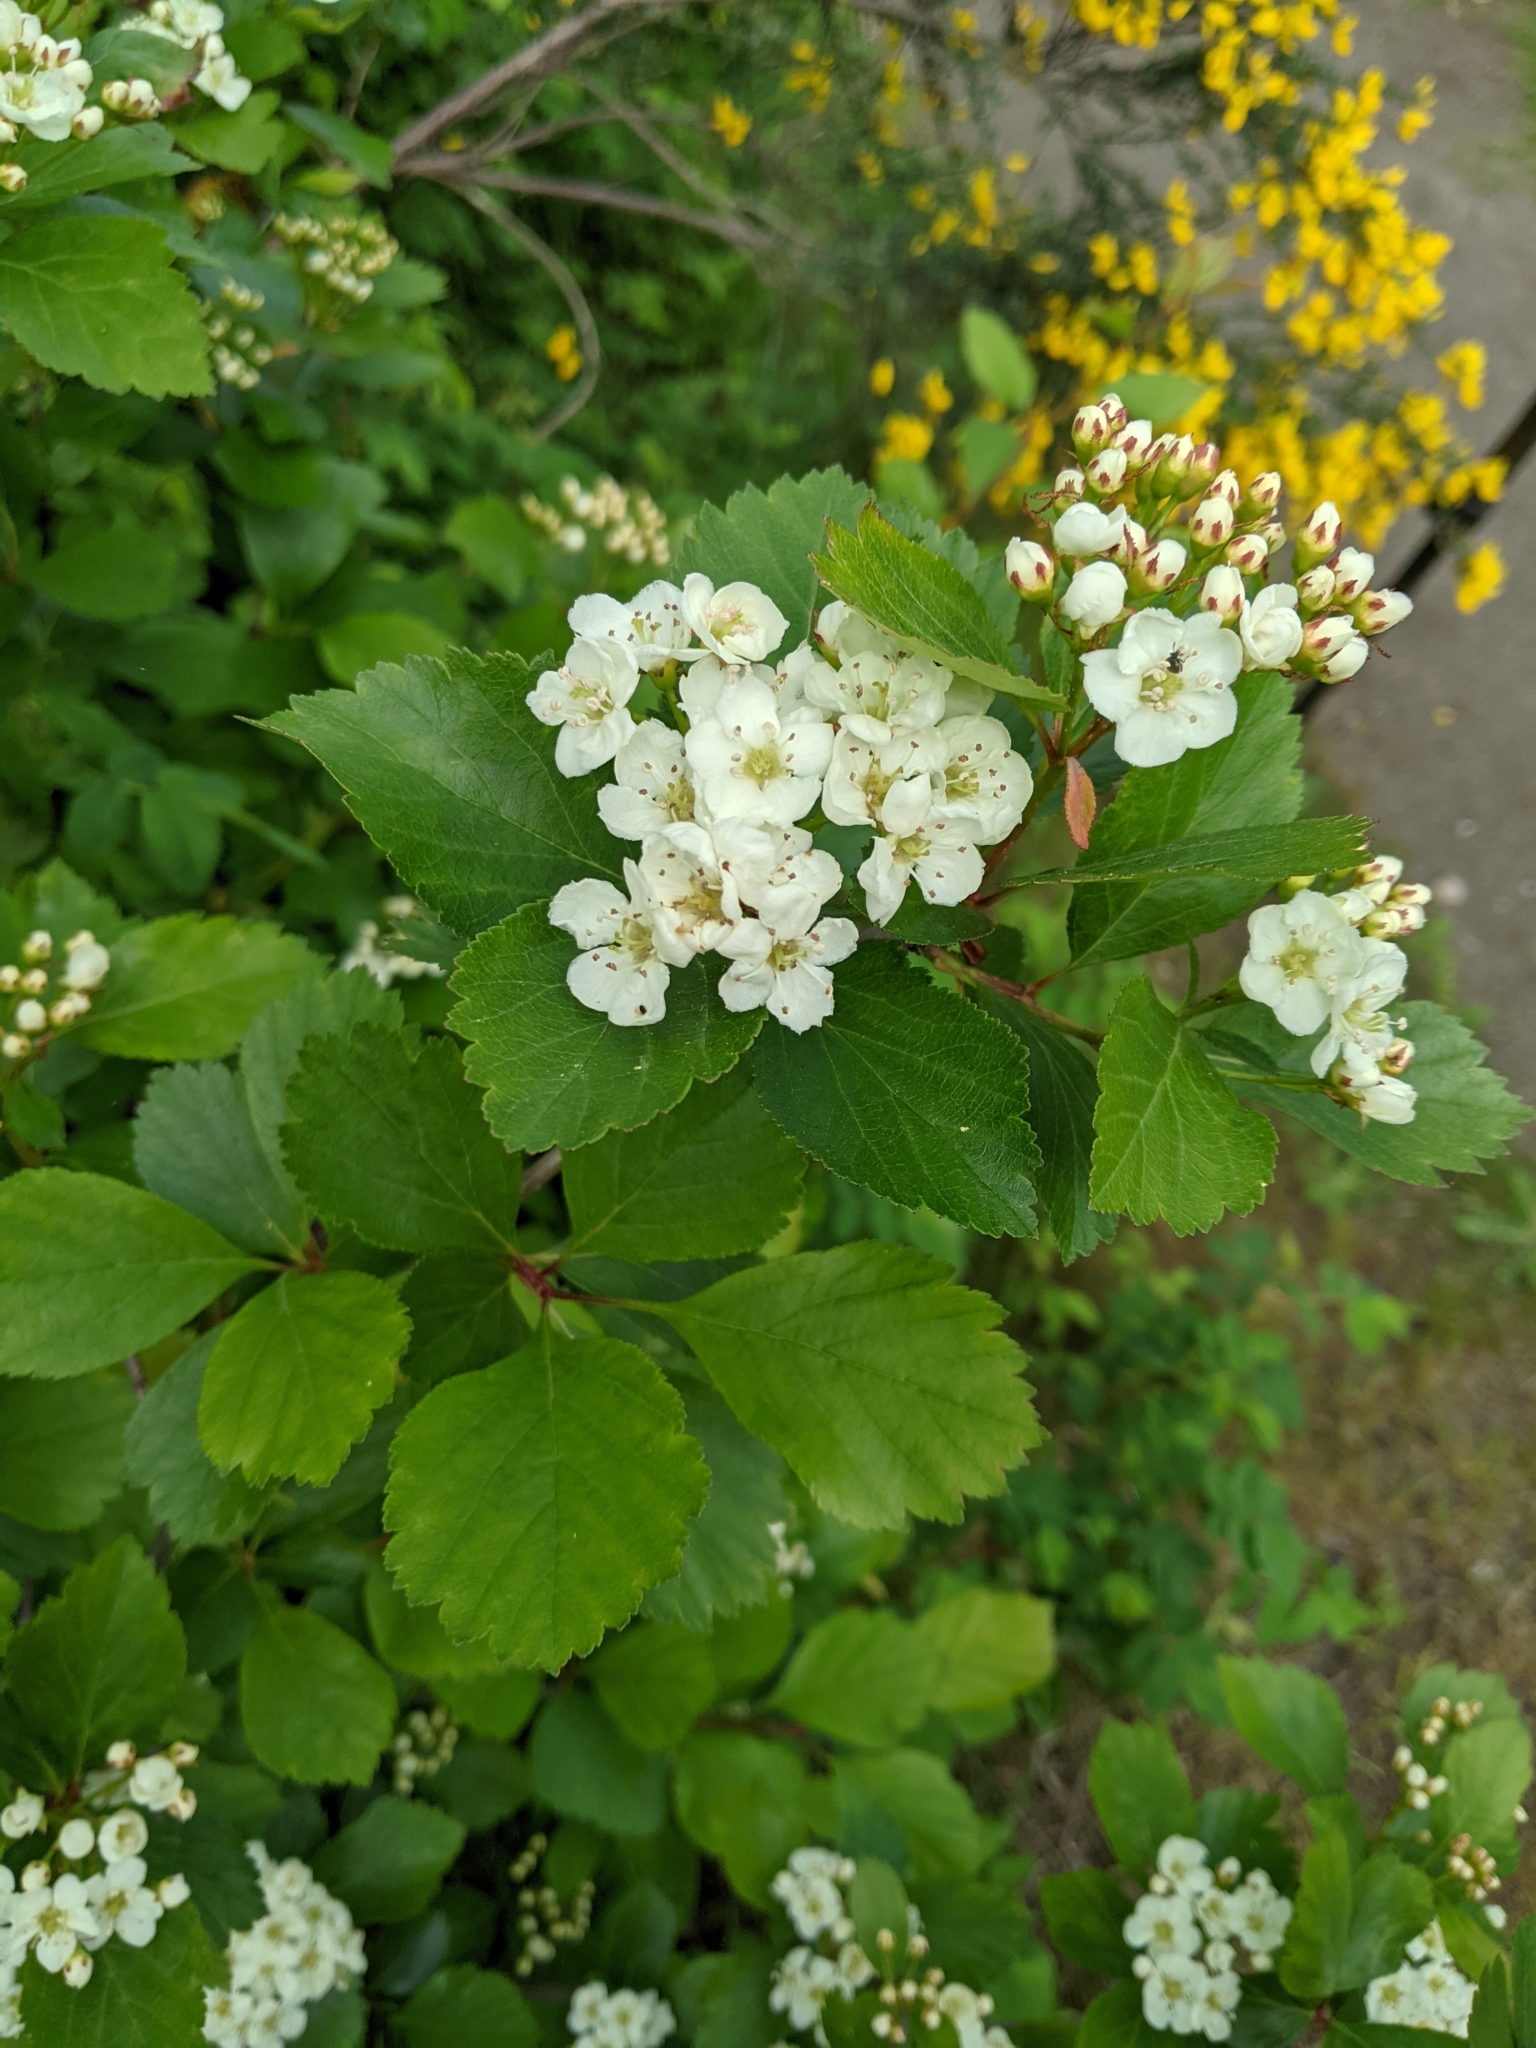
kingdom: Plantae
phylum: Tracheophyta
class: Magnoliopsida
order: Rosales
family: Rosaceae
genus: Crataegus
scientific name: Crataegus douglasii
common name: Black hawthorn
